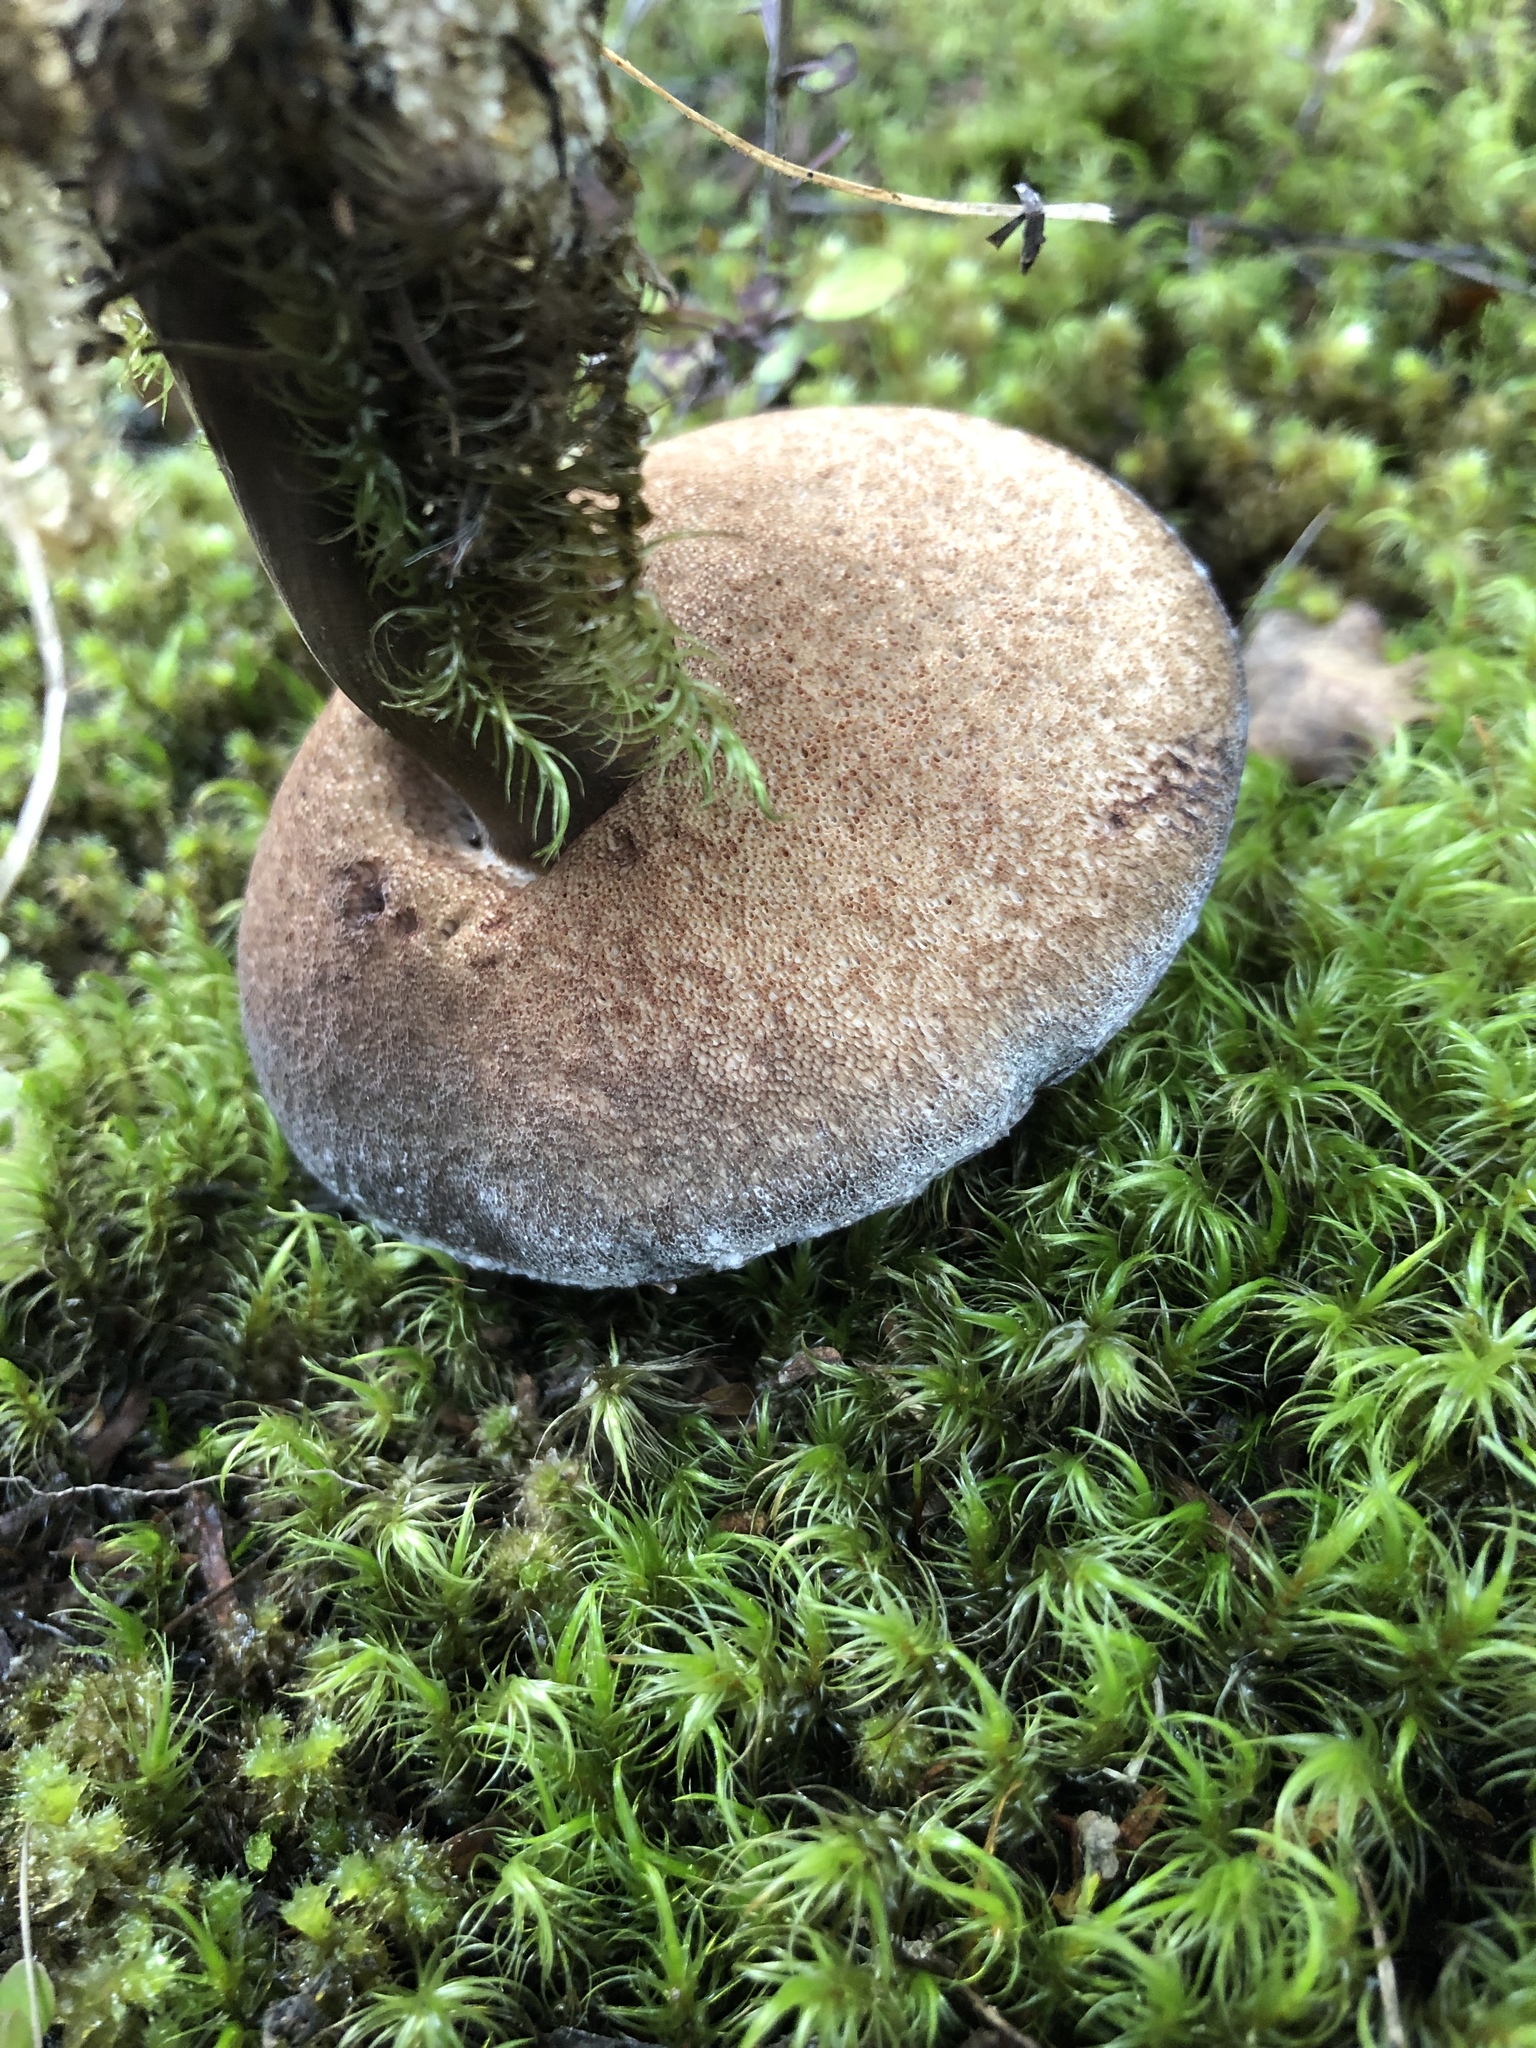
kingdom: Fungi
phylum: Basidiomycota
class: Agaricomycetes
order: Boletales
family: Boletaceae
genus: Porphyrellus
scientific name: Porphyrellus formosus
